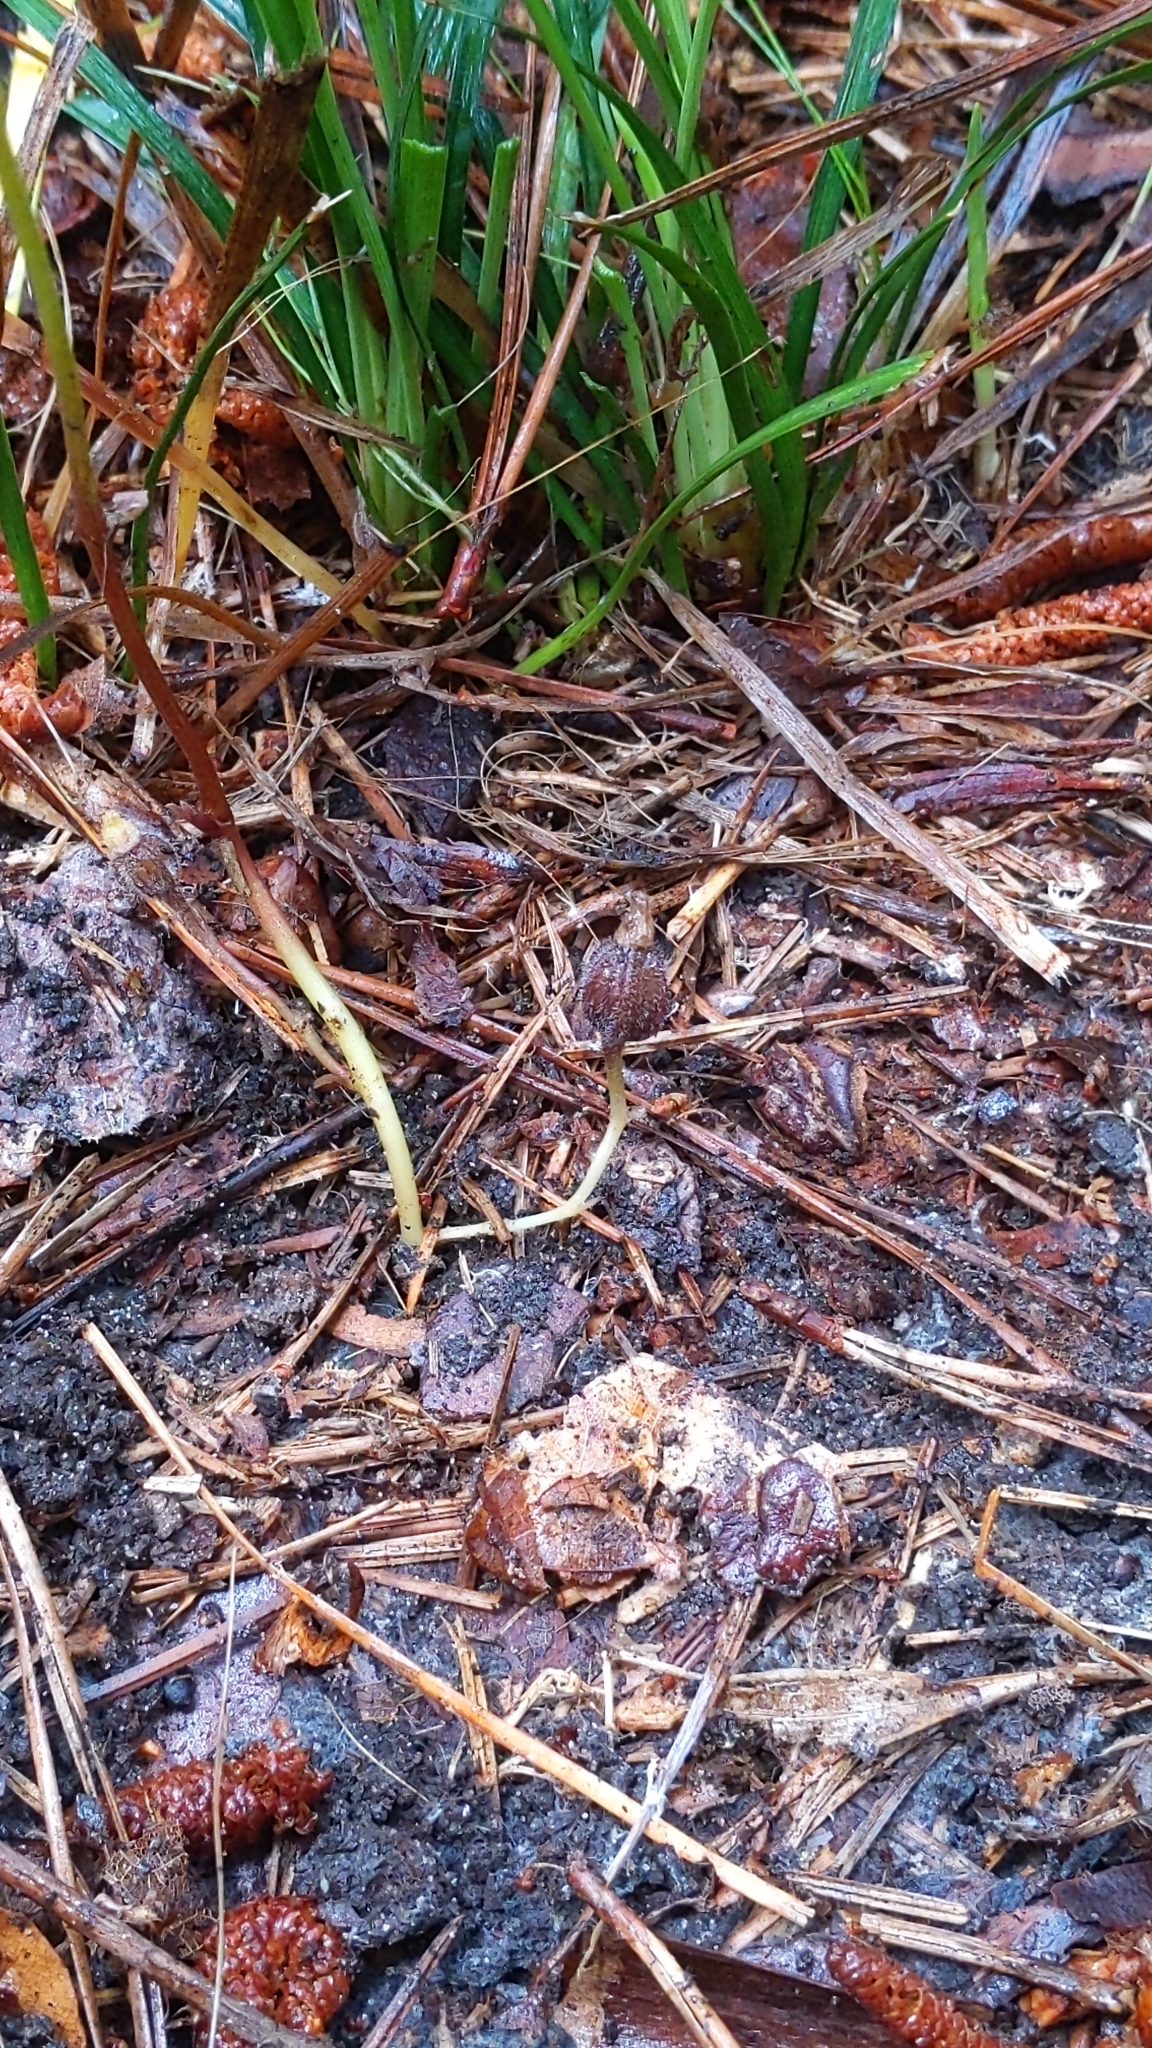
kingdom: Plantae
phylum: Tracheophyta
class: Magnoliopsida
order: Piperales
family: Aristolochiaceae
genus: Endodeca
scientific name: Endodeca serpentaria
